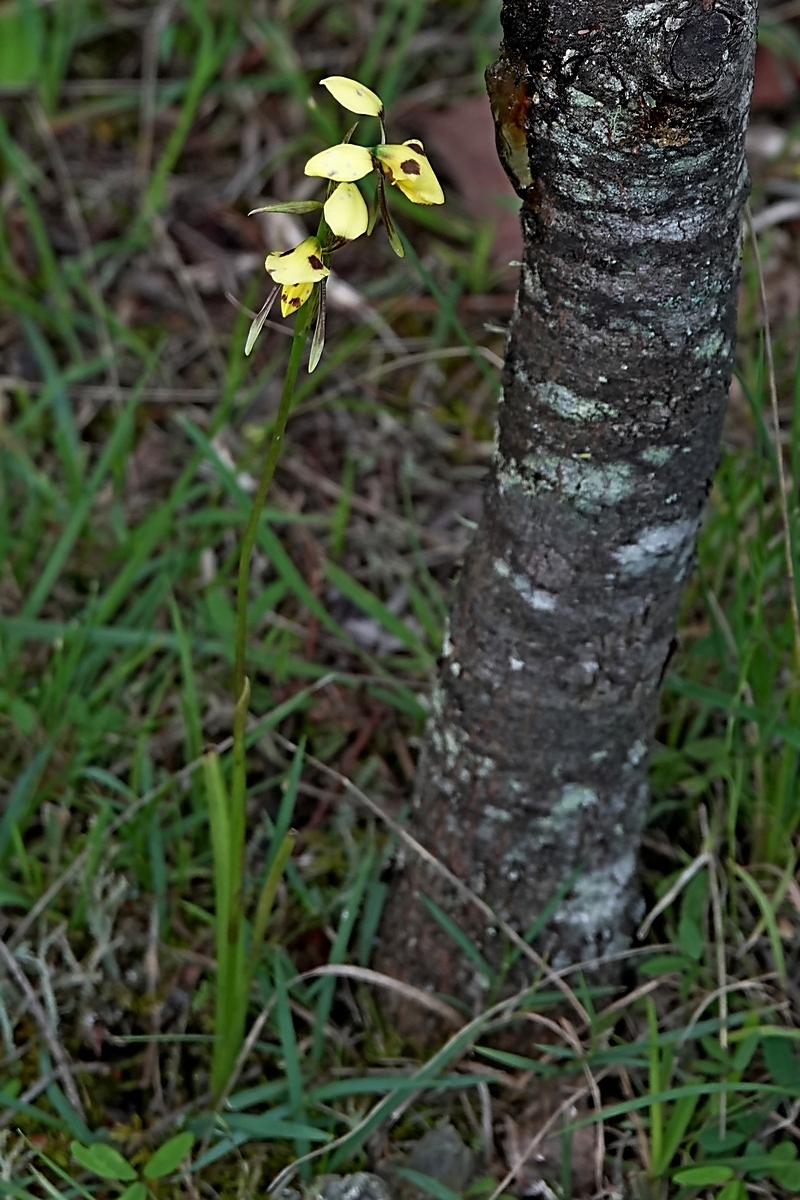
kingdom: Plantae
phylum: Tracheophyta
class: Liliopsida
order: Asparagales
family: Orchidaceae
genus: Diuris
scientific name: Diuris sulphurea
